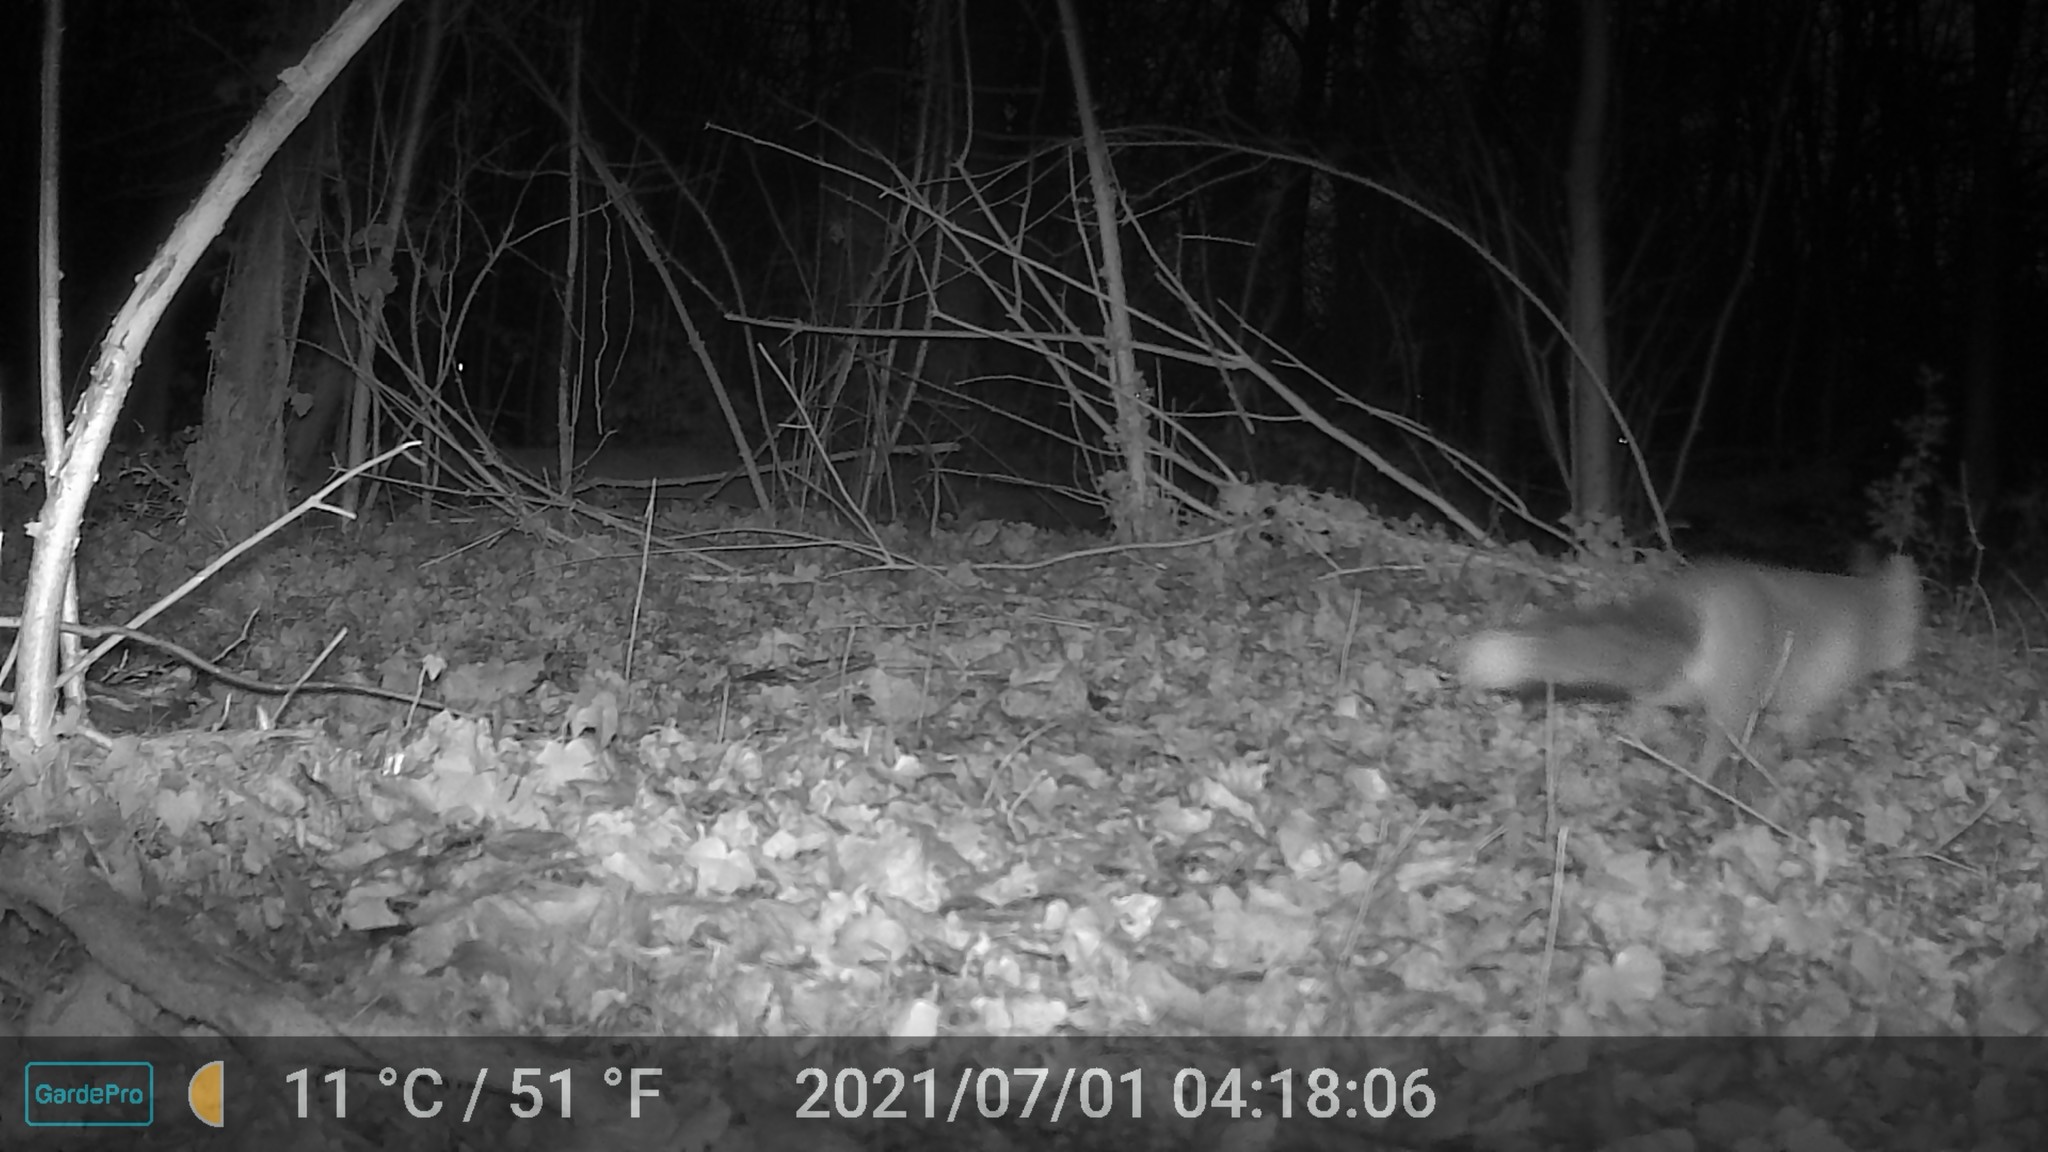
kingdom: Animalia
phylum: Chordata
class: Mammalia
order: Carnivora
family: Canidae
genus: Vulpes
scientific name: Vulpes vulpes
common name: Red fox
